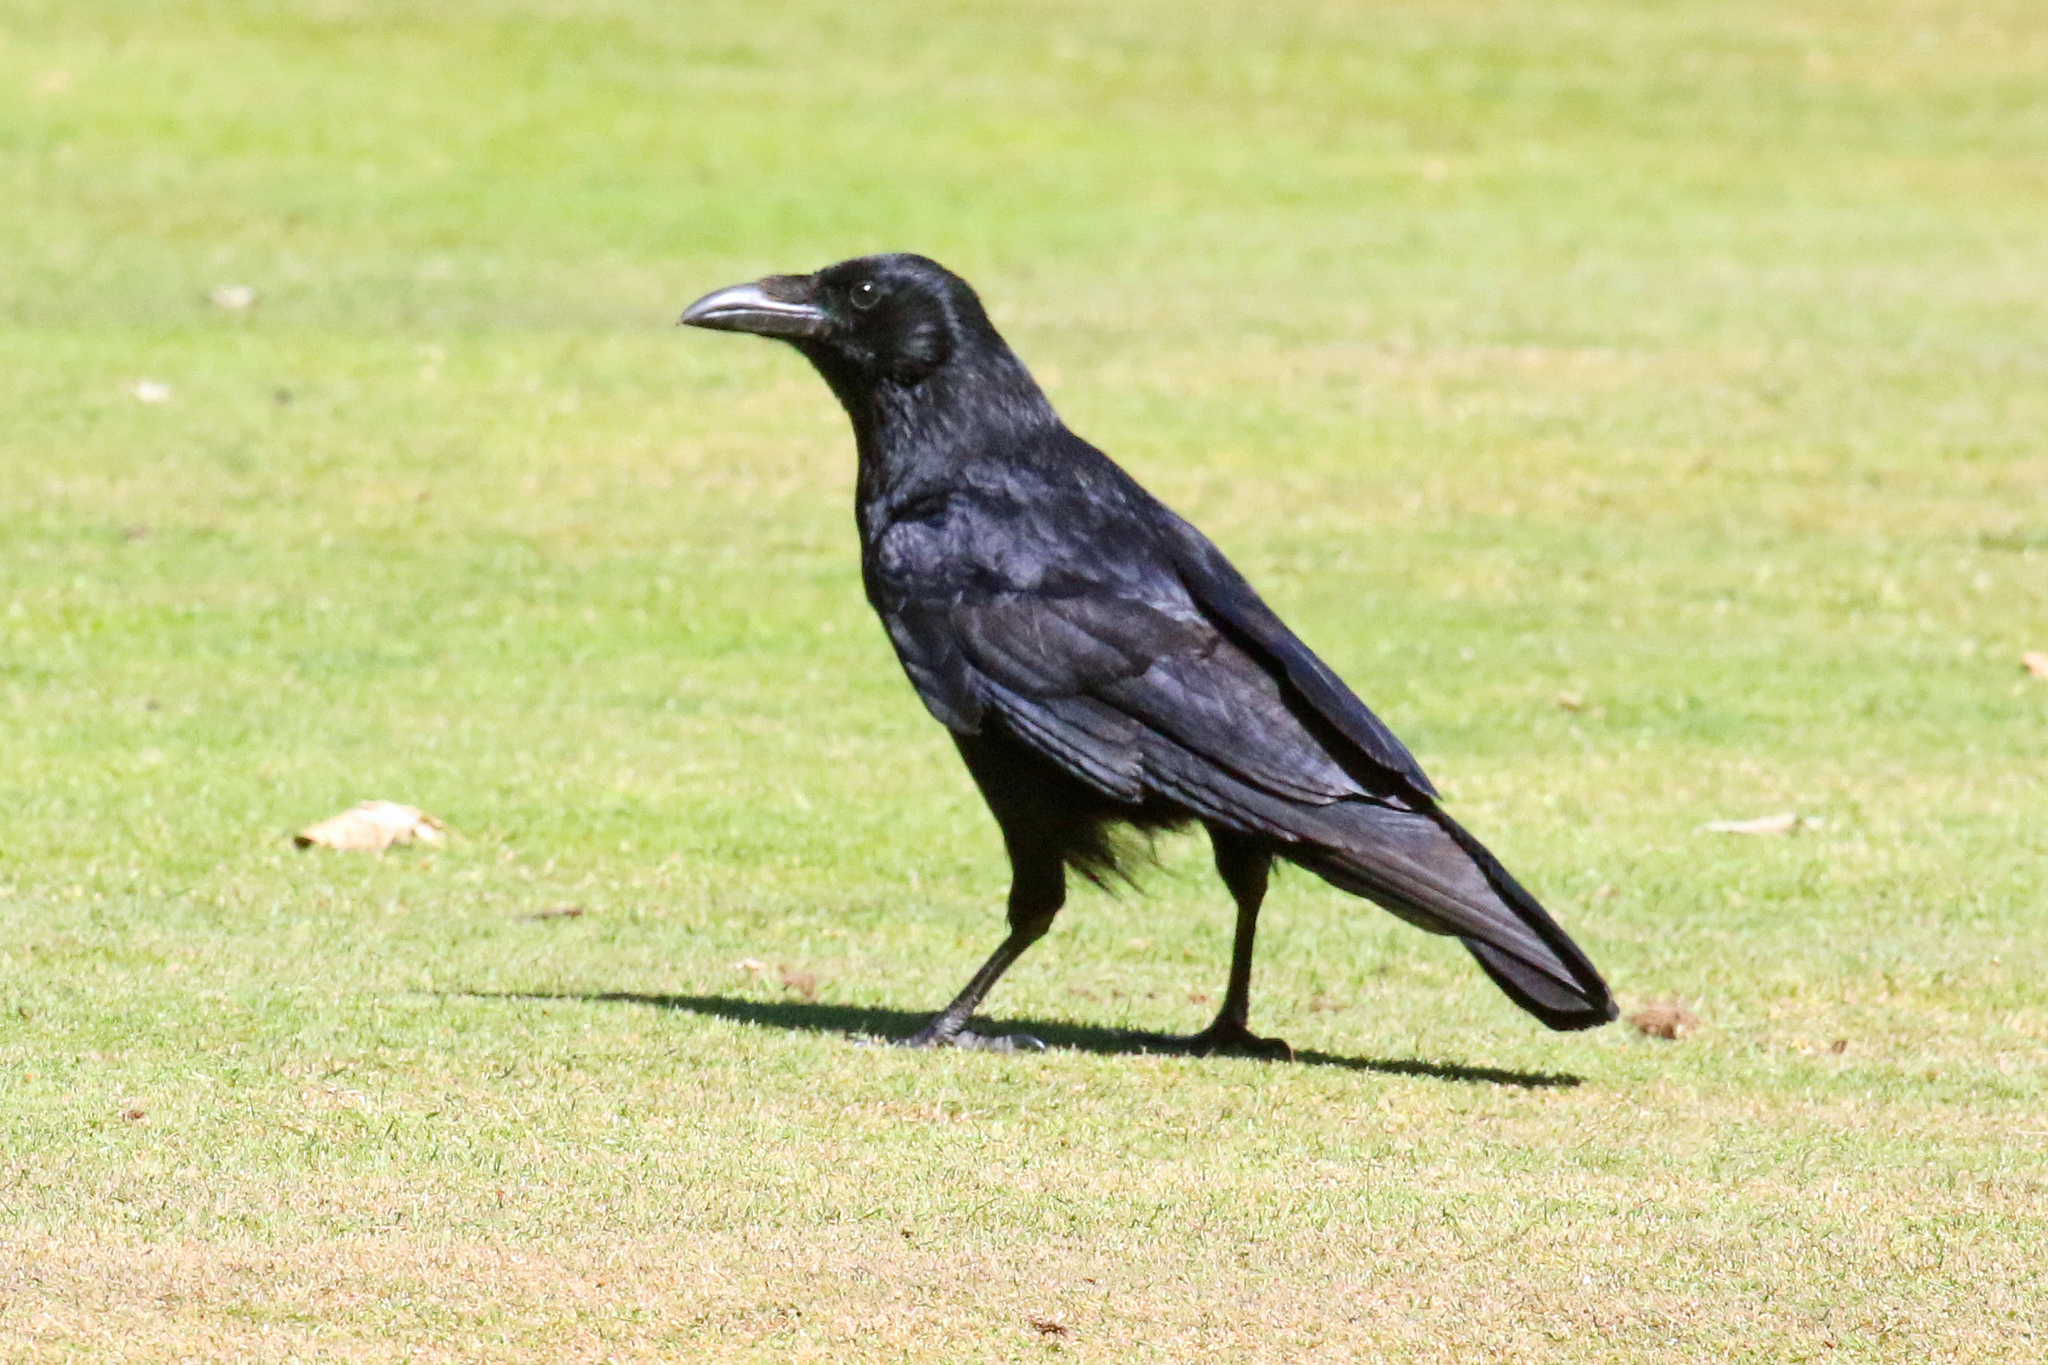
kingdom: Animalia
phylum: Chordata
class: Aves
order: Passeriformes
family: Corvidae
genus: Corvus
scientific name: Corvus corone
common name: Carrion crow
